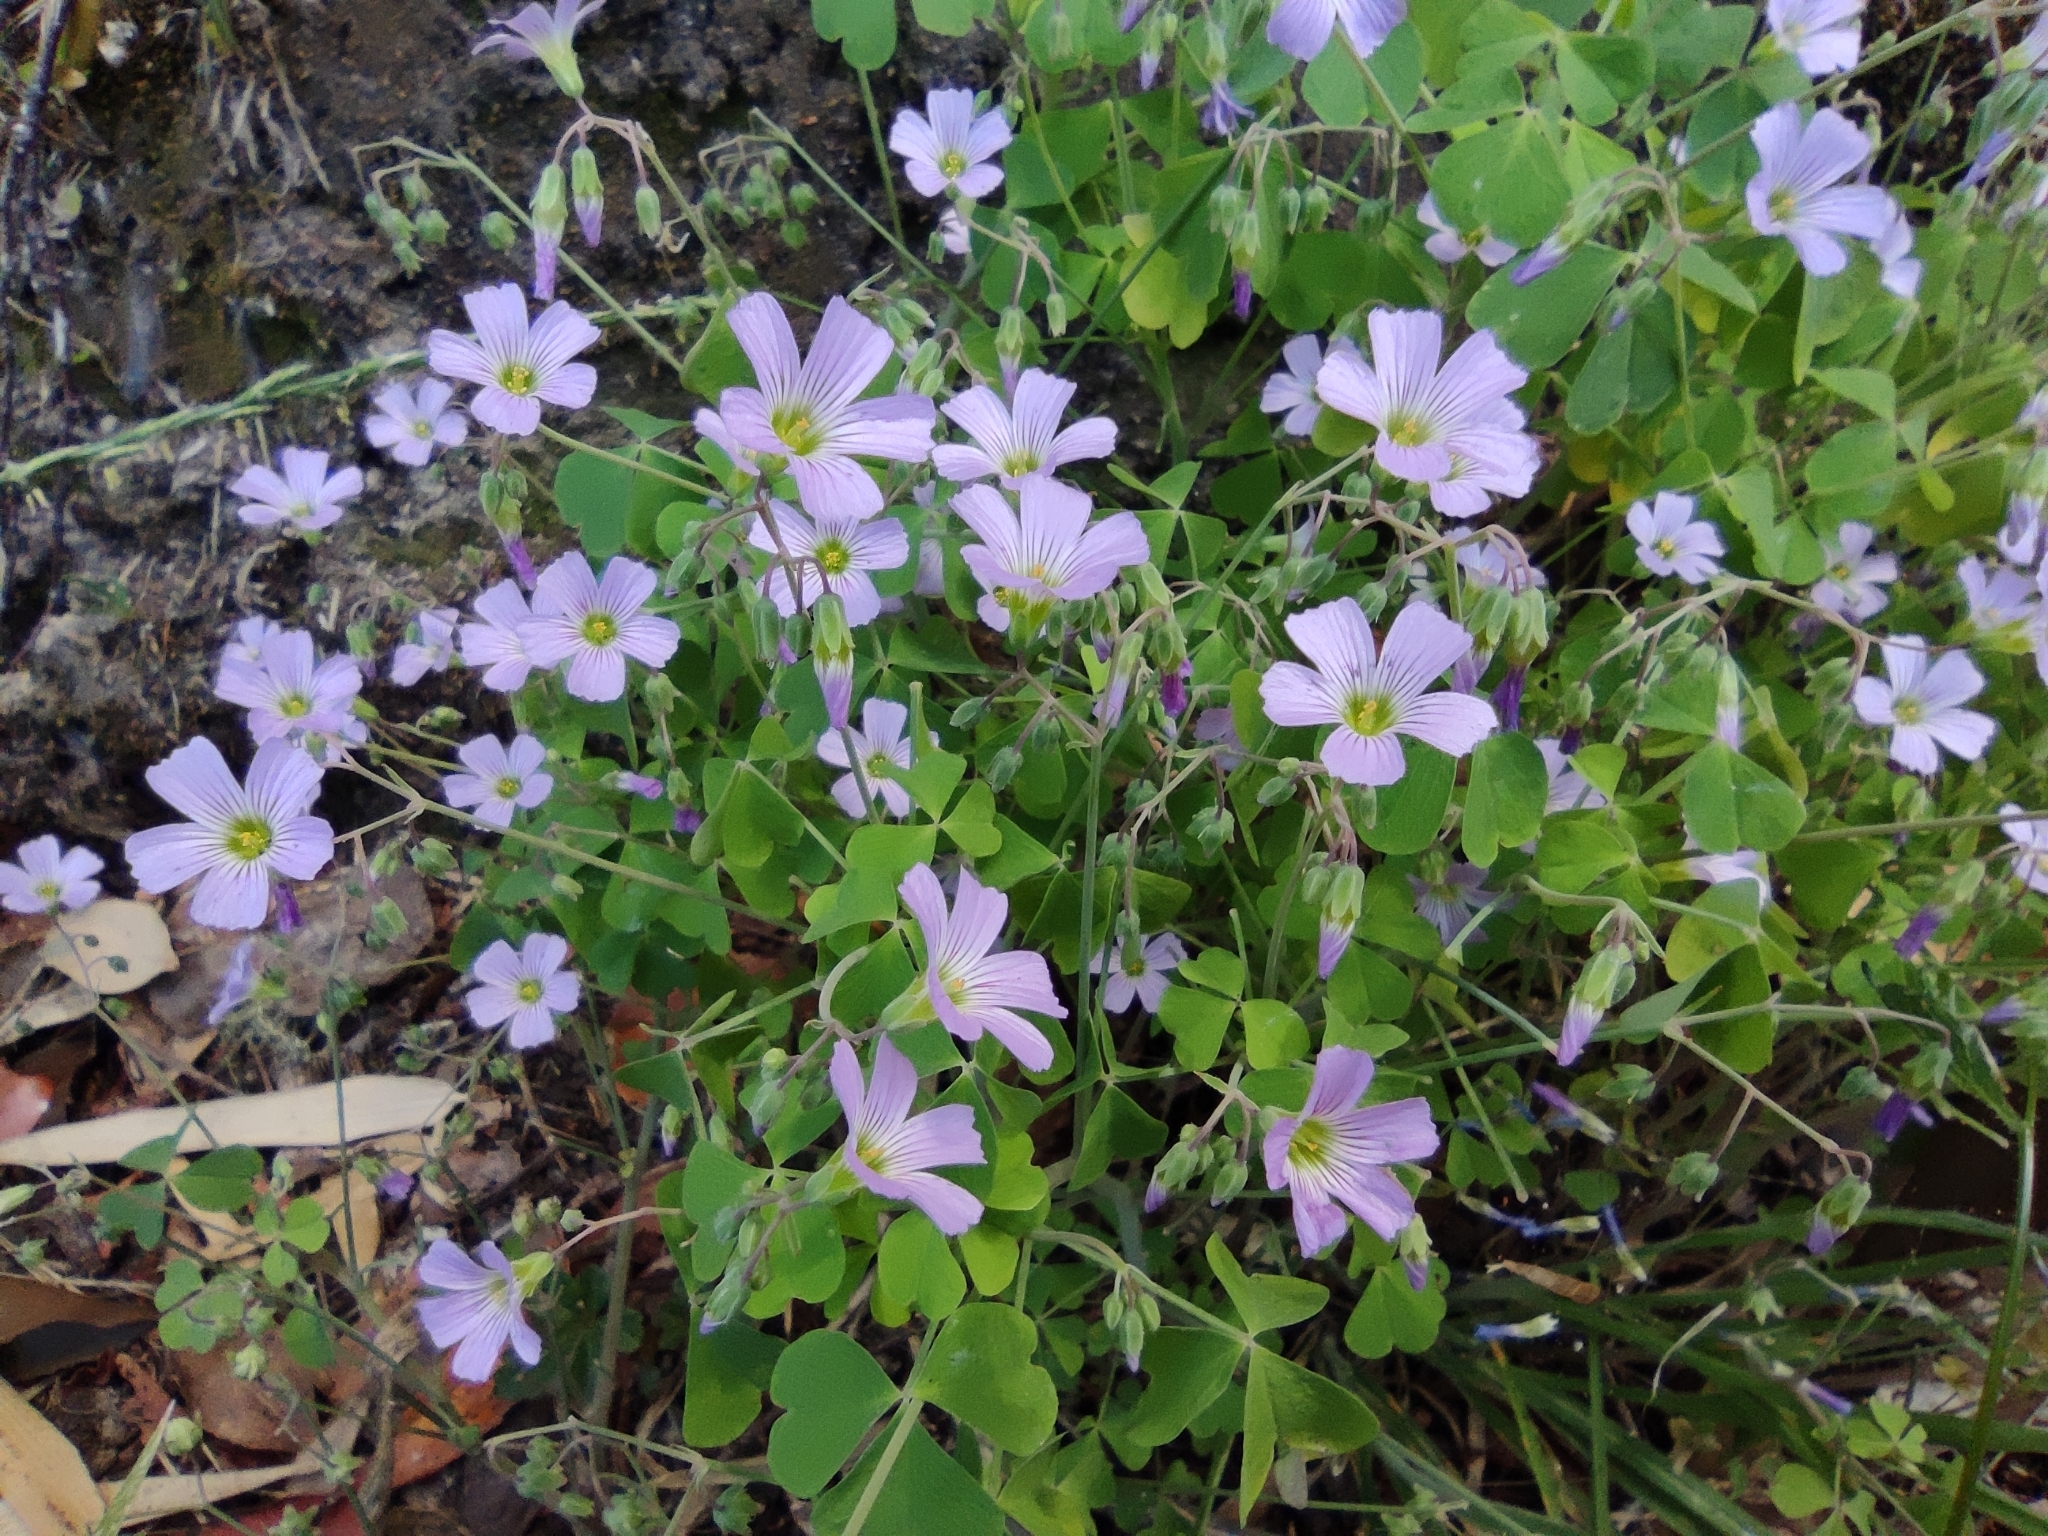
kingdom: Plantae
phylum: Tracheophyta
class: Magnoliopsida
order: Oxalidales
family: Oxalidaceae
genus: Oxalis
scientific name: Oxalis rosea
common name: Annual pink-sorrel
